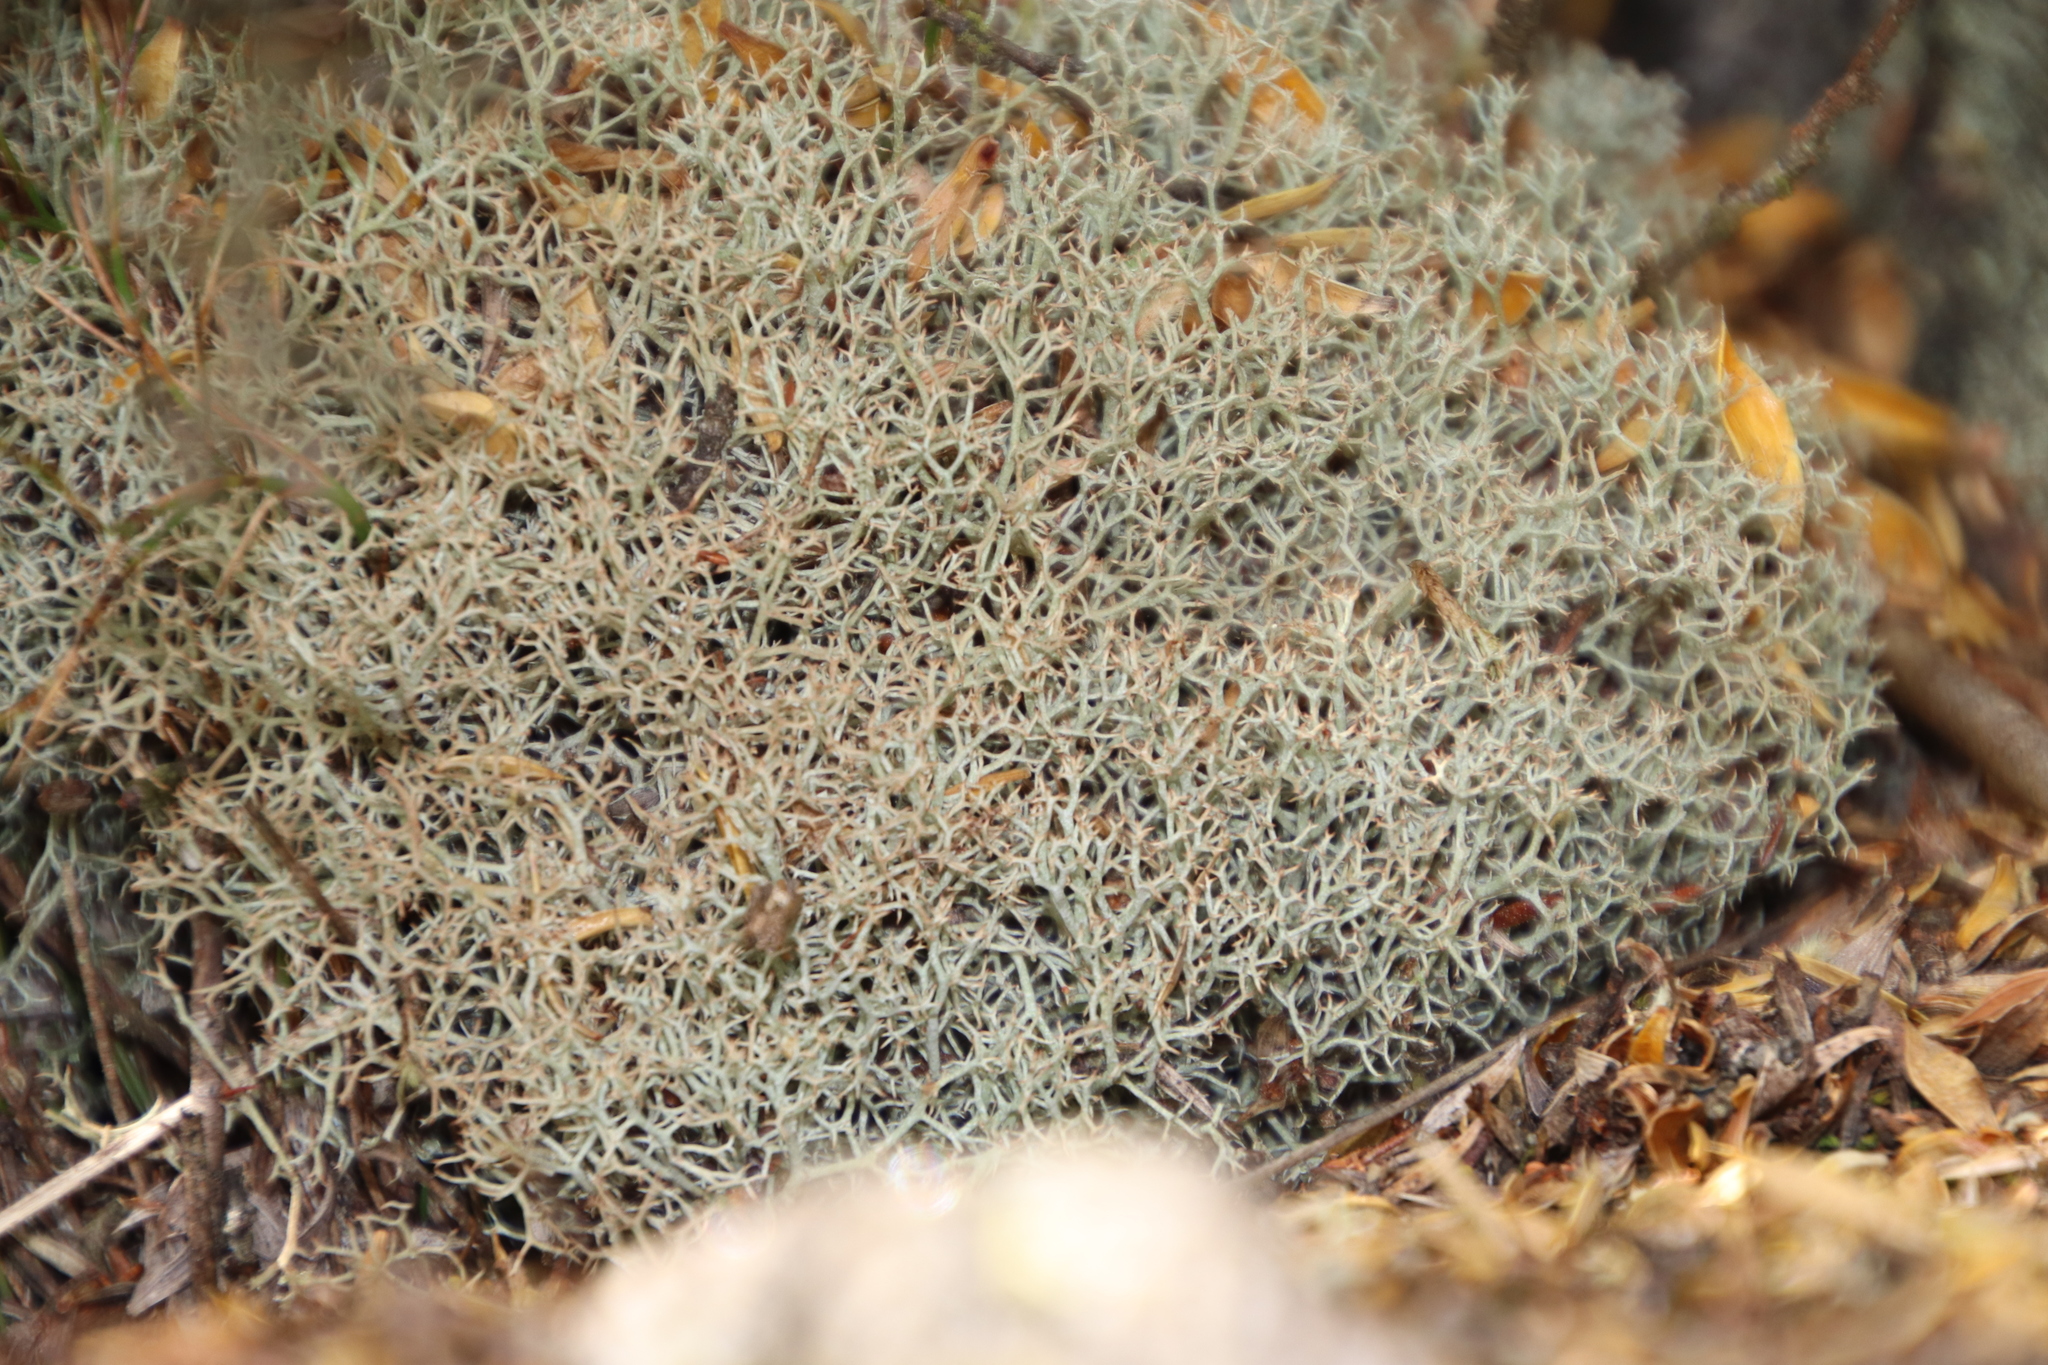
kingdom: Fungi
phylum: Ascomycota
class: Lecanoromycetes
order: Lecanorales
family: Cladoniaceae
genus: Cladonia
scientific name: Cladonia
